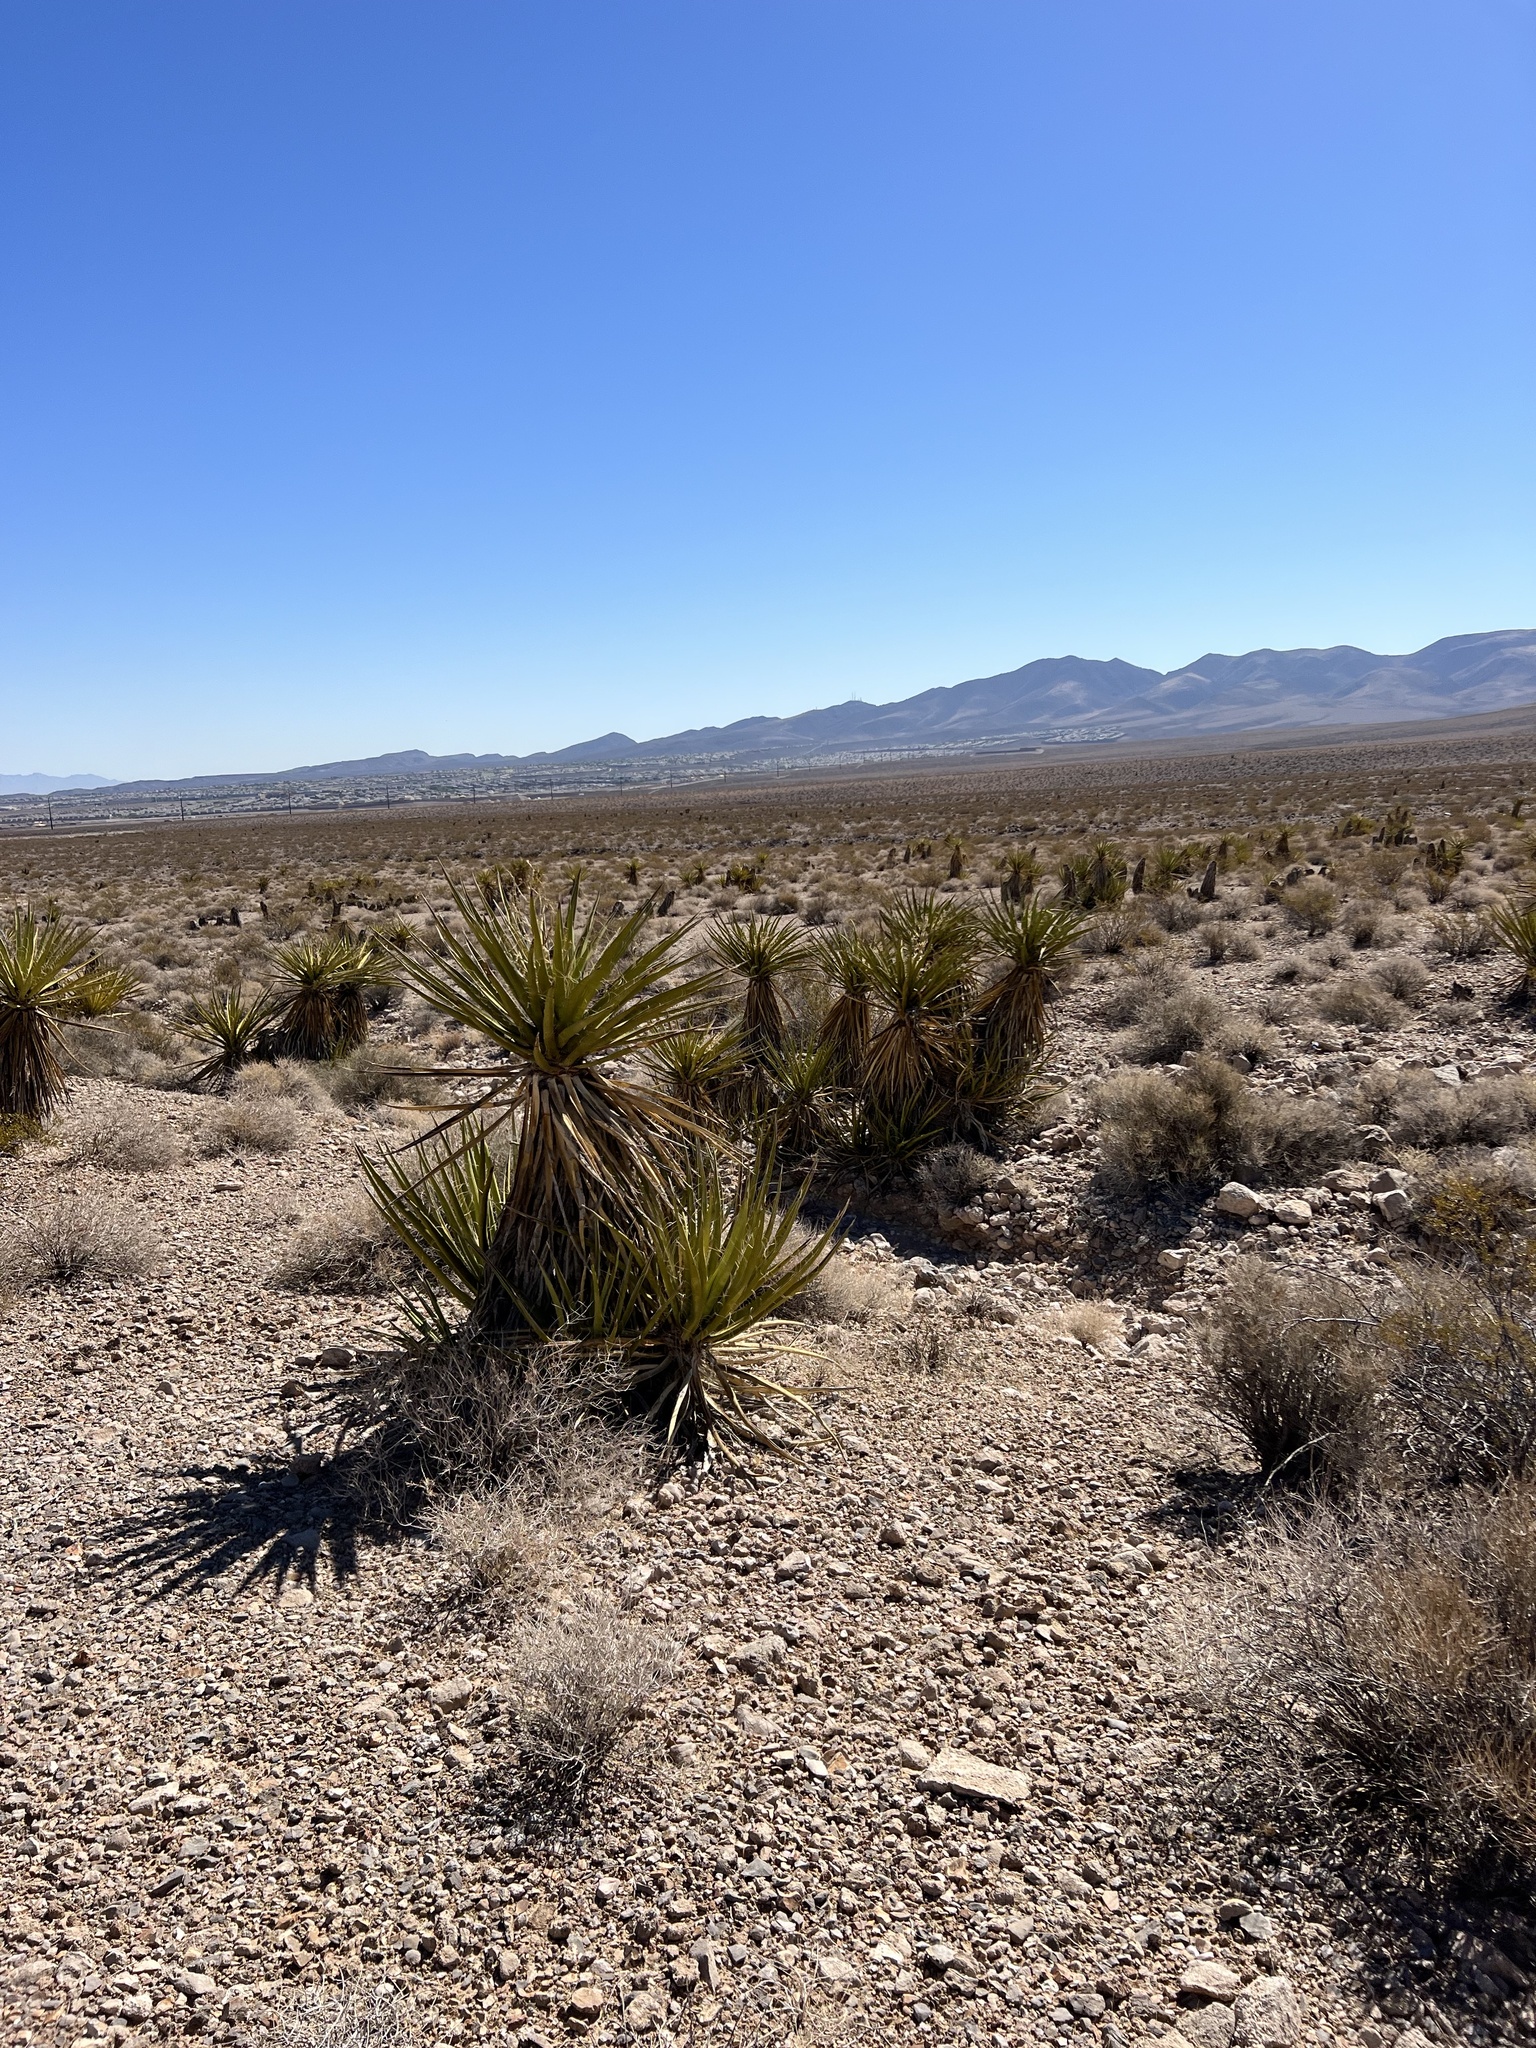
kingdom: Plantae
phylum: Tracheophyta
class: Liliopsida
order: Asparagales
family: Asparagaceae
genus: Yucca
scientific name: Yucca schidigera
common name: Mojave yucca
